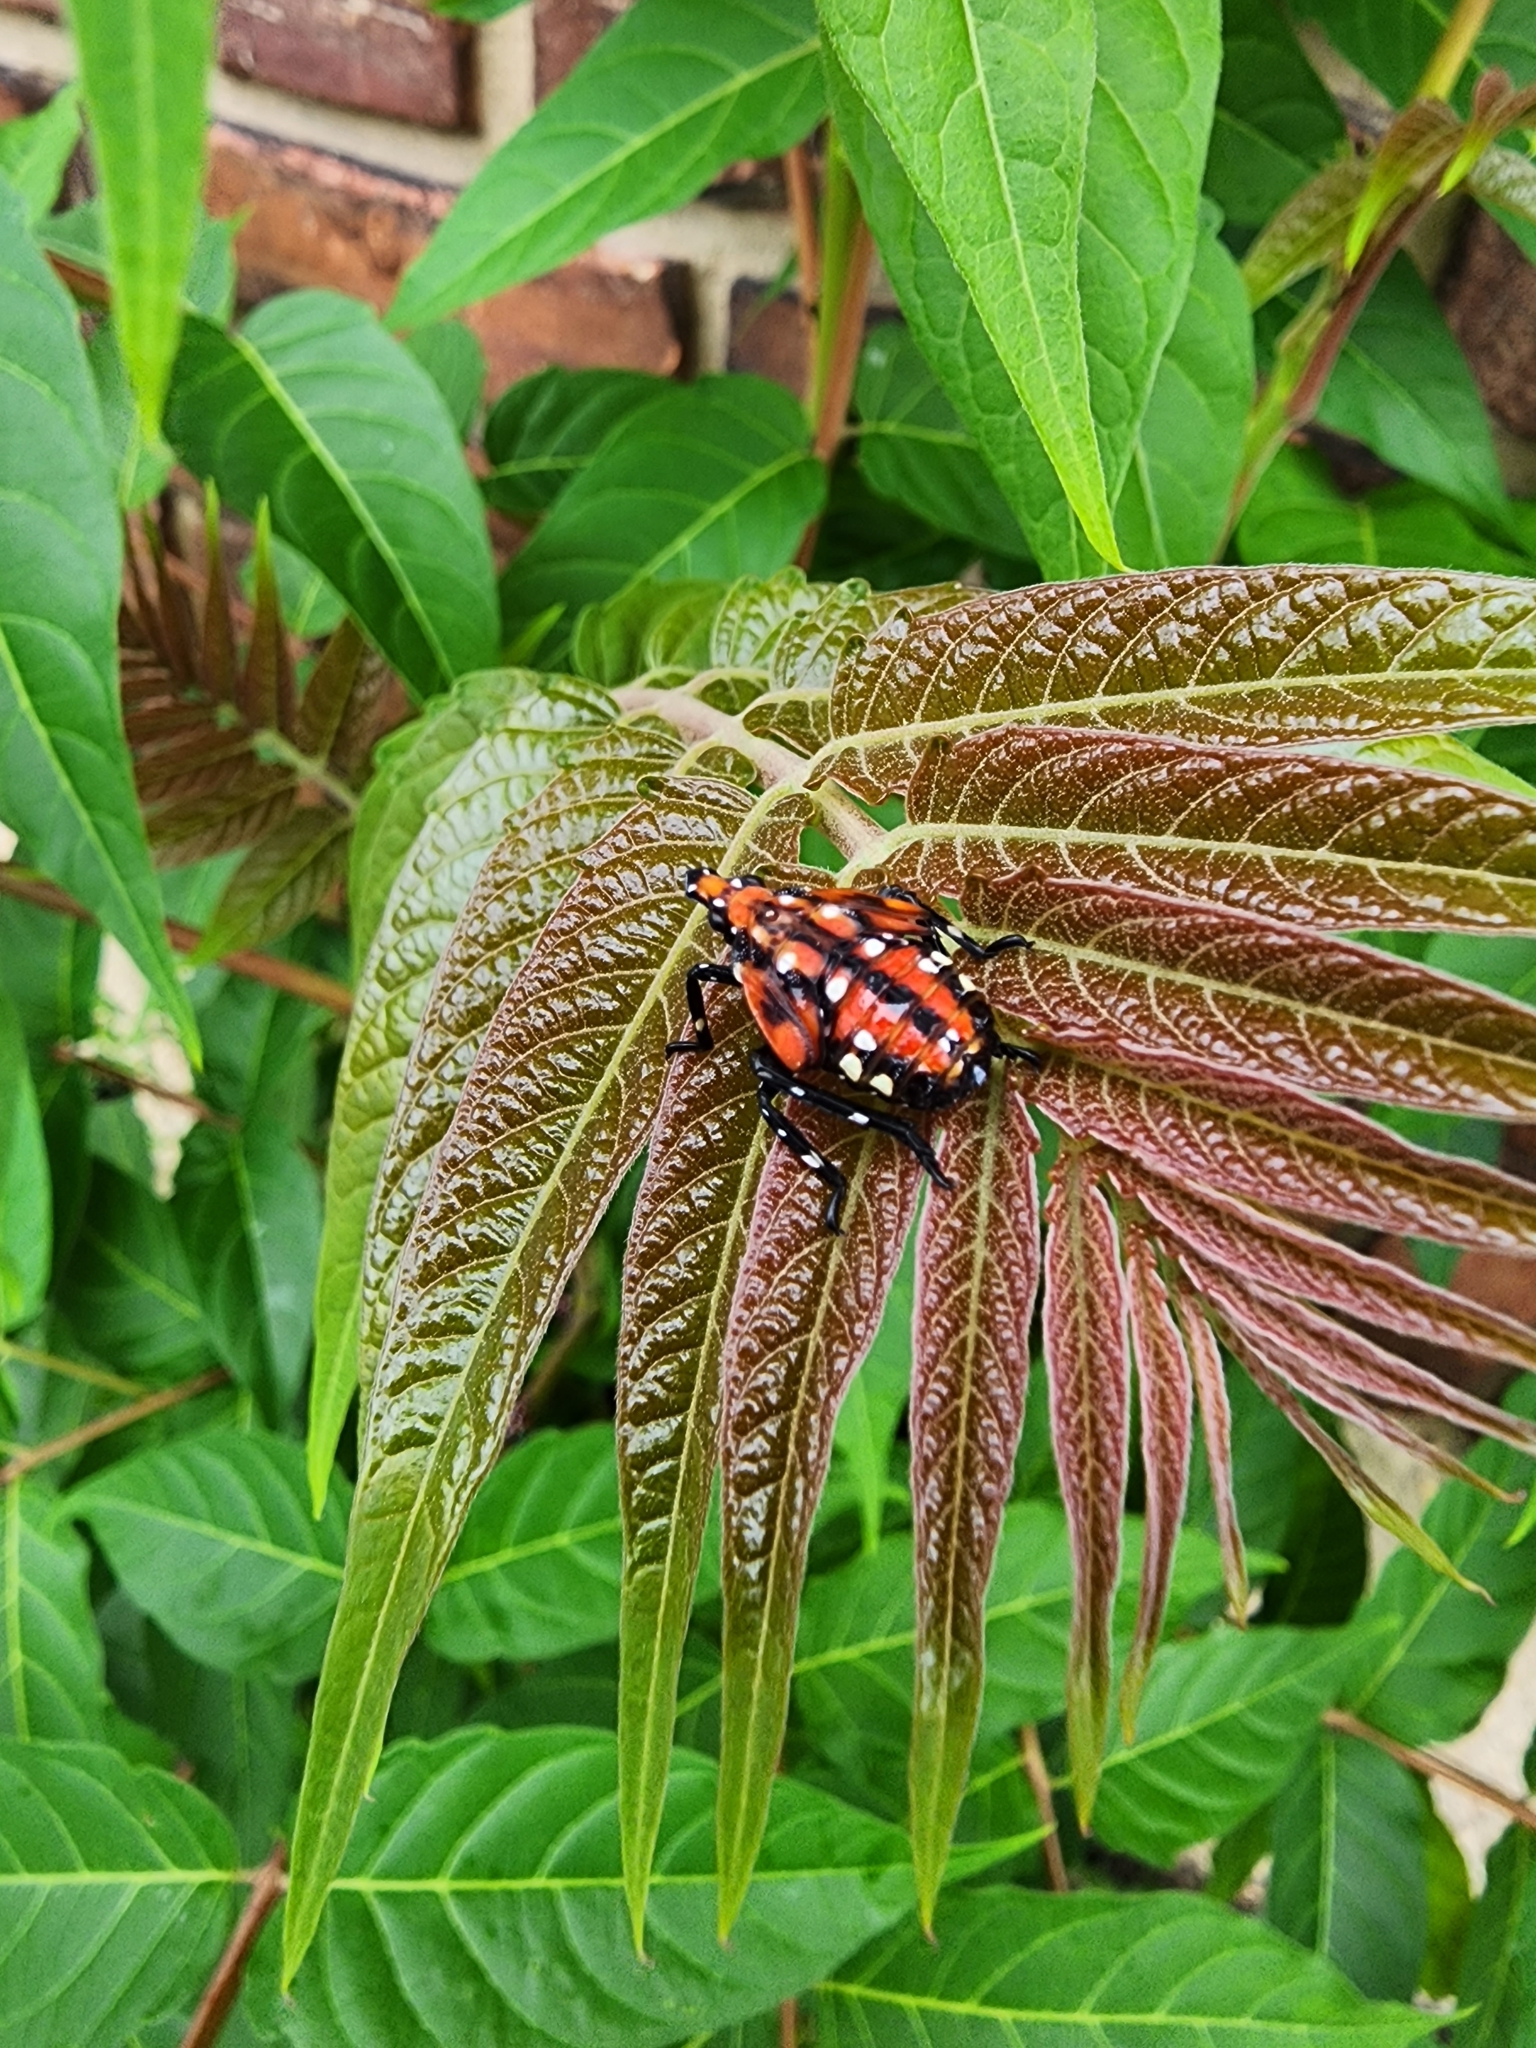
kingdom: Animalia
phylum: Arthropoda
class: Insecta
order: Hemiptera
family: Fulgoridae
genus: Lycorma
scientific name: Lycorma delicatula
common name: Spotted lanternfly
